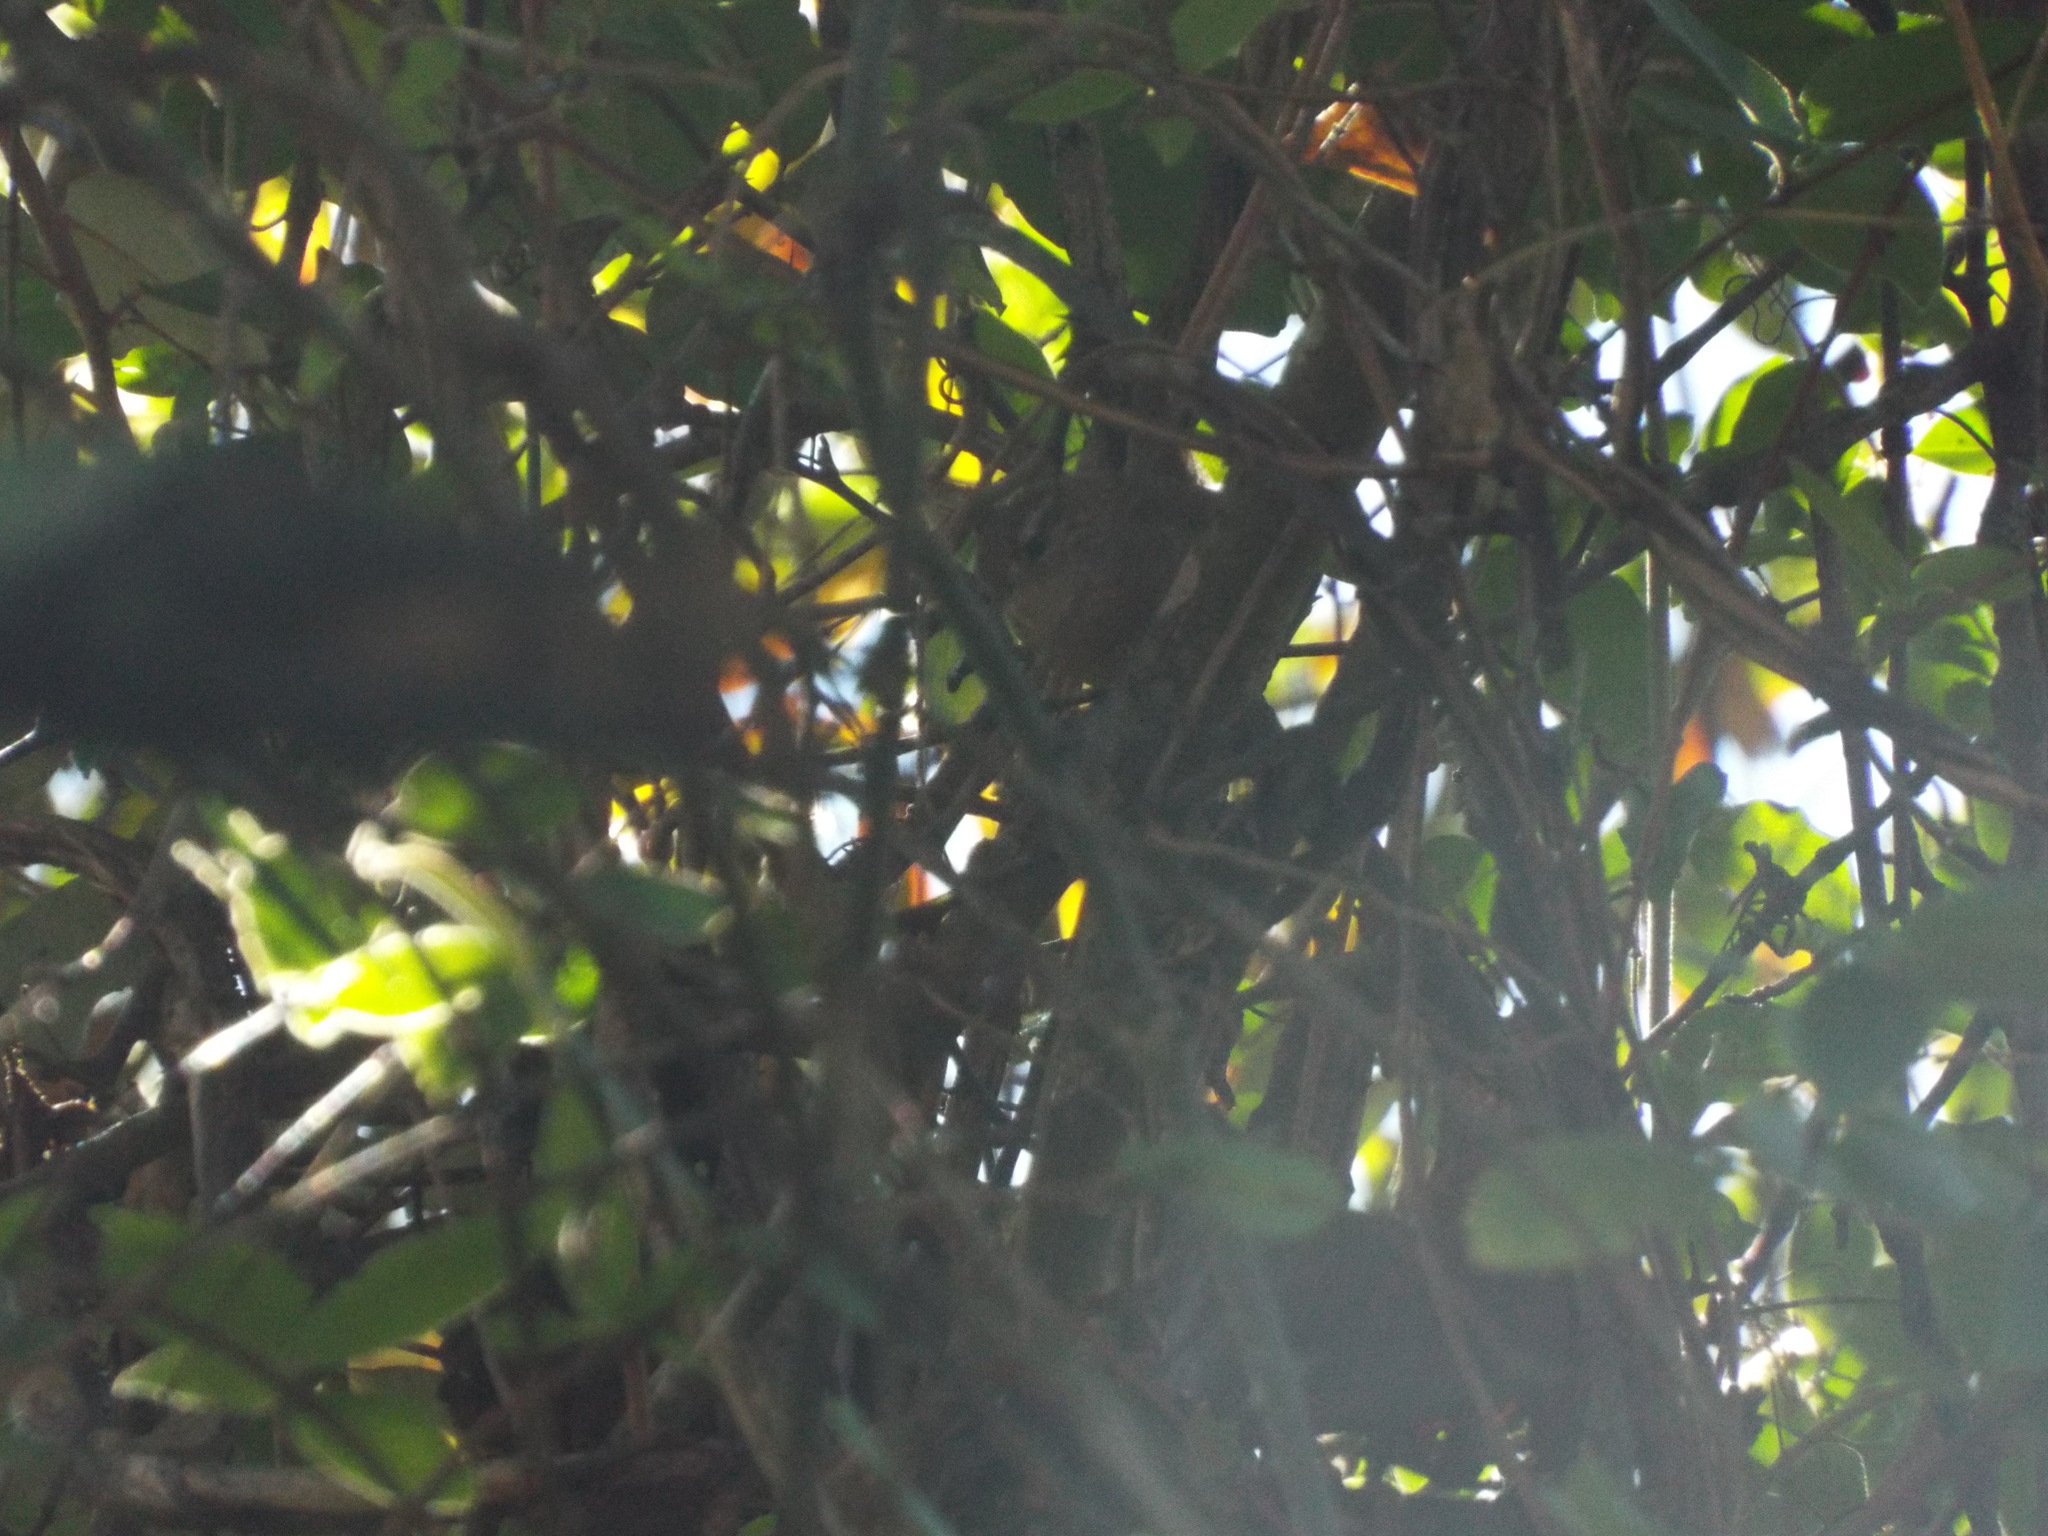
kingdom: Animalia
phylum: Chordata
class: Aves
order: Passeriformes
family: Troglodytidae
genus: Troglodytes
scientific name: Troglodytes hiemalis
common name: Winter wren
